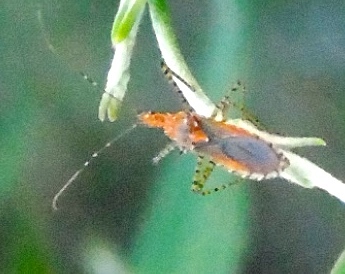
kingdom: Animalia
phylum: Arthropoda
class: Insecta
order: Hemiptera
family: Reduviidae
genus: Pselliopus
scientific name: Pselliopus
